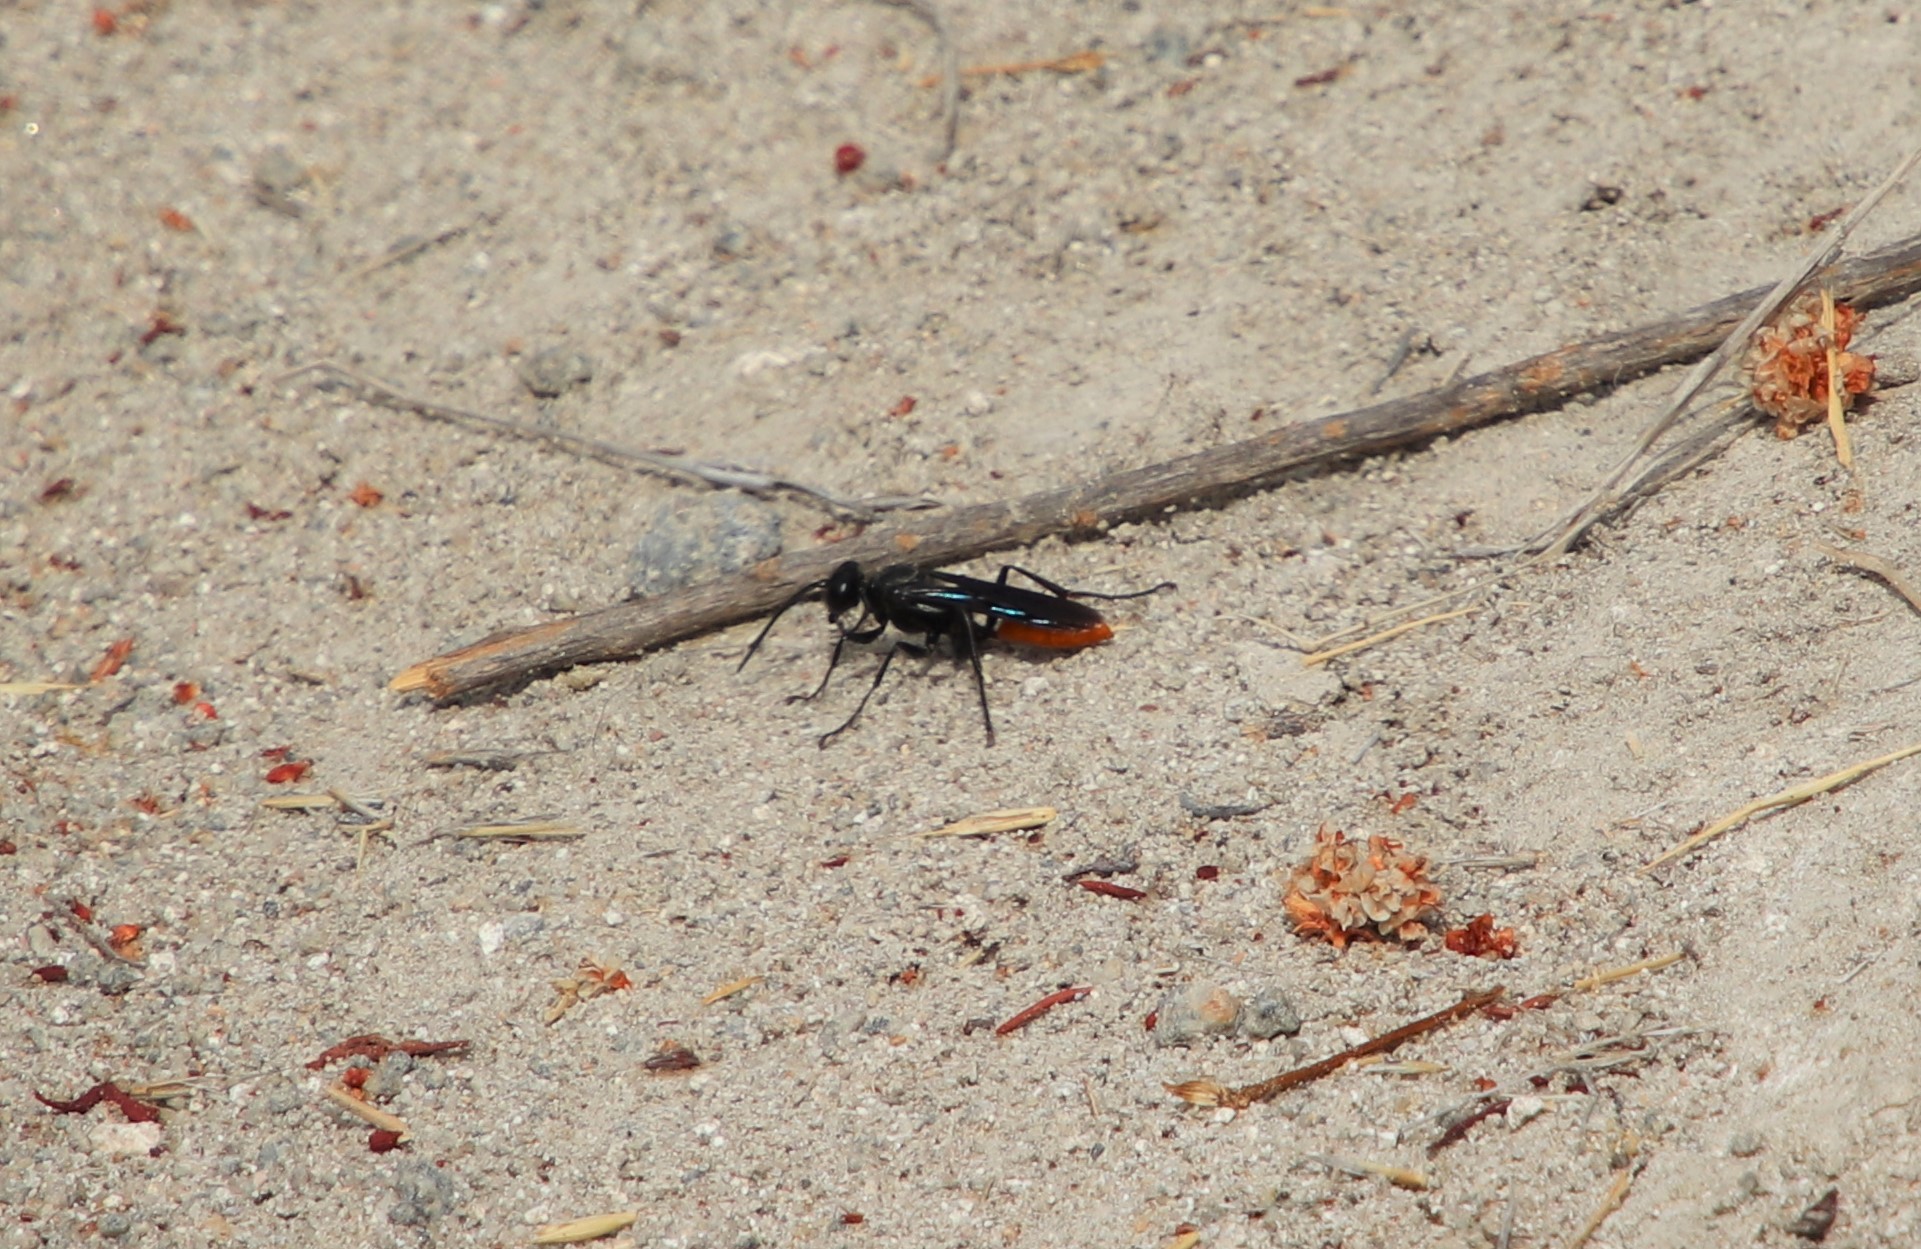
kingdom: Animalia
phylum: Arthropoda
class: Insecta
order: Hymenoptera
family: Sphecidae
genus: Sphex
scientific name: Sphex lucae
